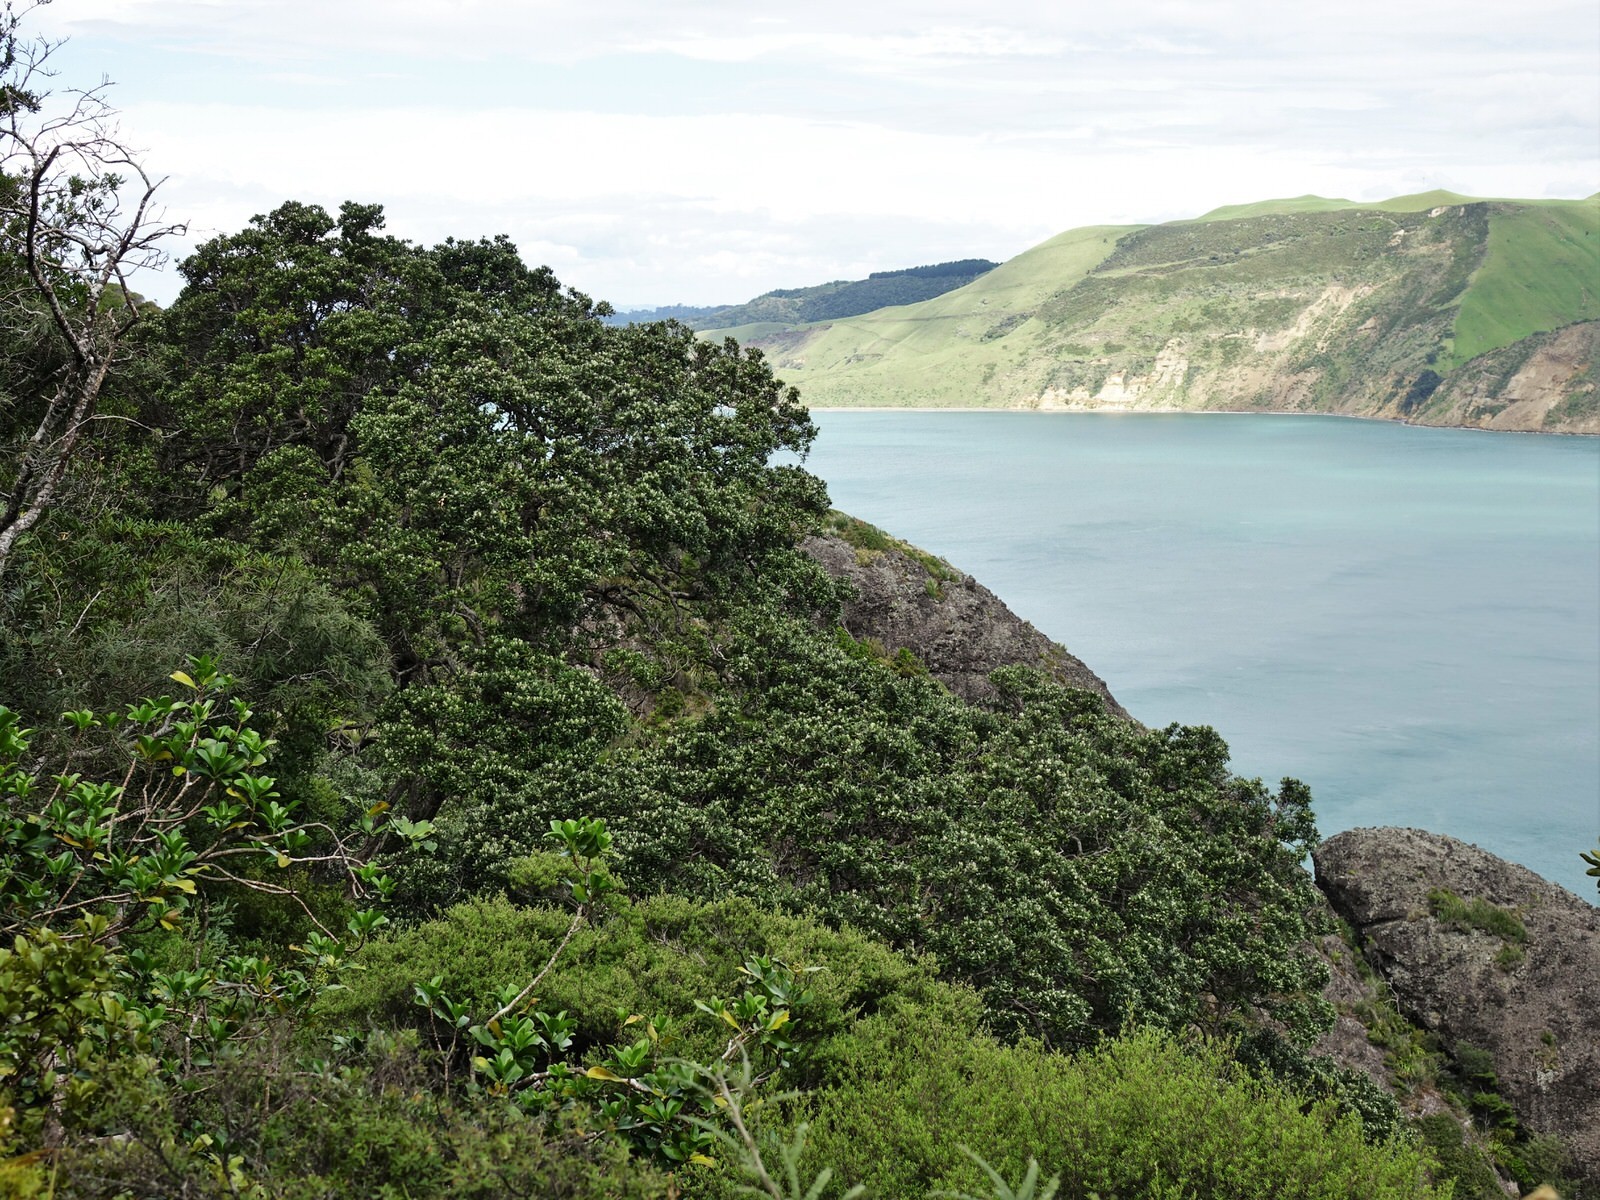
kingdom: Plantae
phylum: Tracheophyta
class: Magnoliopsida
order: Myrtales
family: Myrtaceae
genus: Metrosideros
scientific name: Metrosideros excelsa
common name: New zealand christmastree
